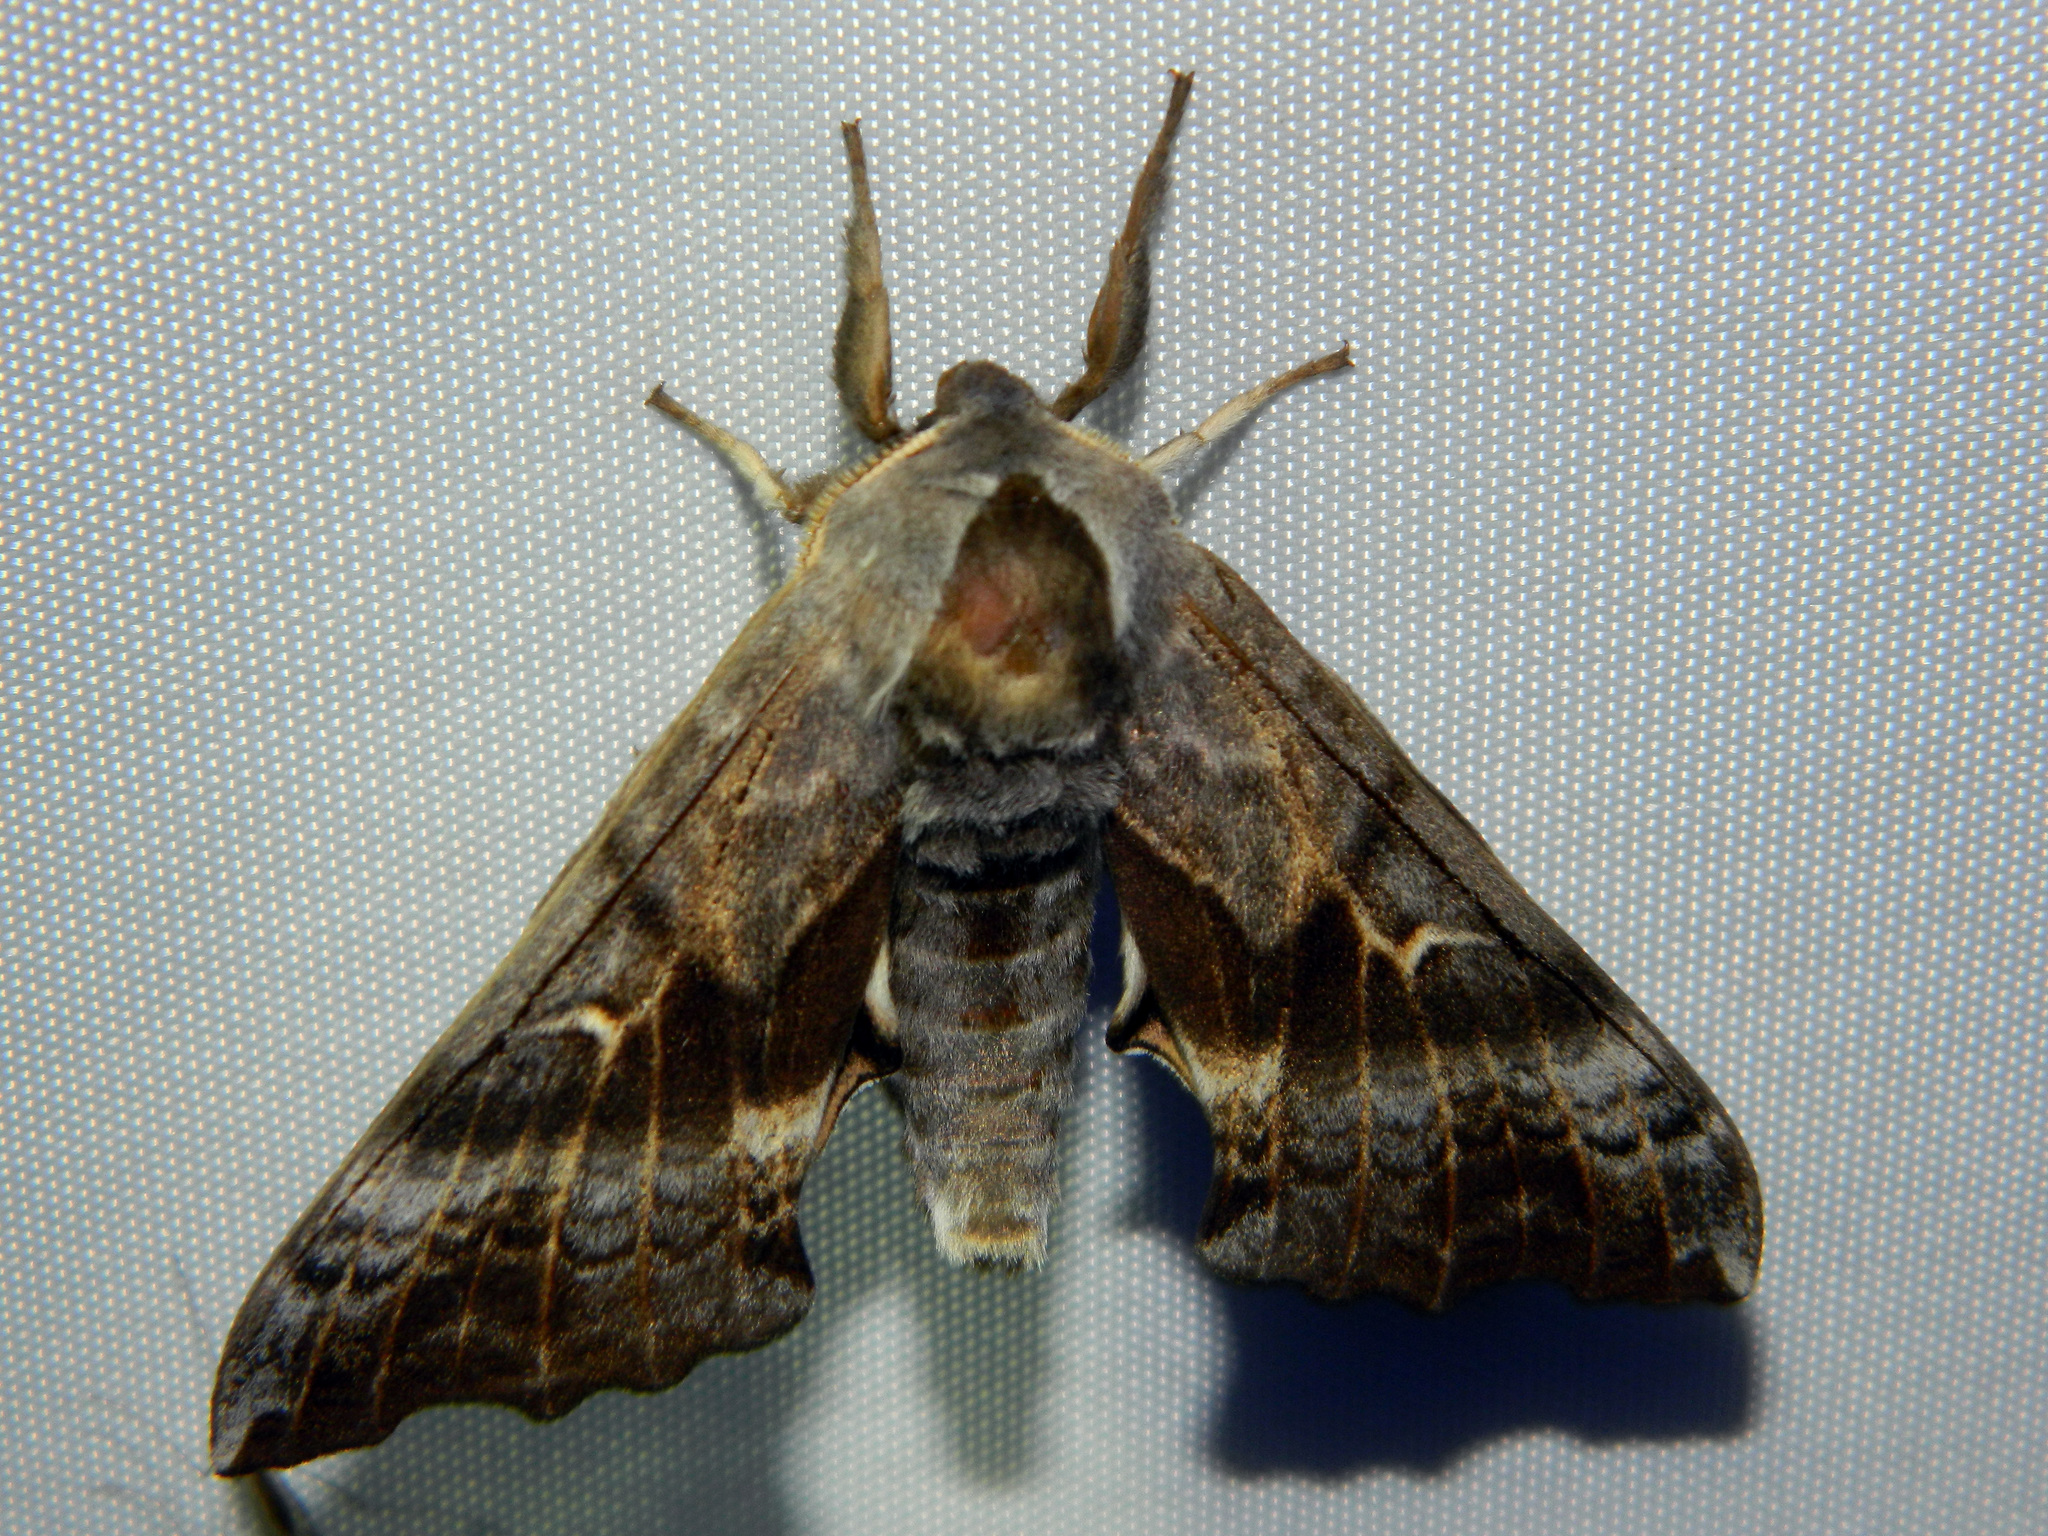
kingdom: Animalia
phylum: Arthropoda
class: Insecta
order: Lepidoptera
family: Sphingidae
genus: Smerinthus
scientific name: Smerinthus cerisyi
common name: Cerisy's sphinx moth
